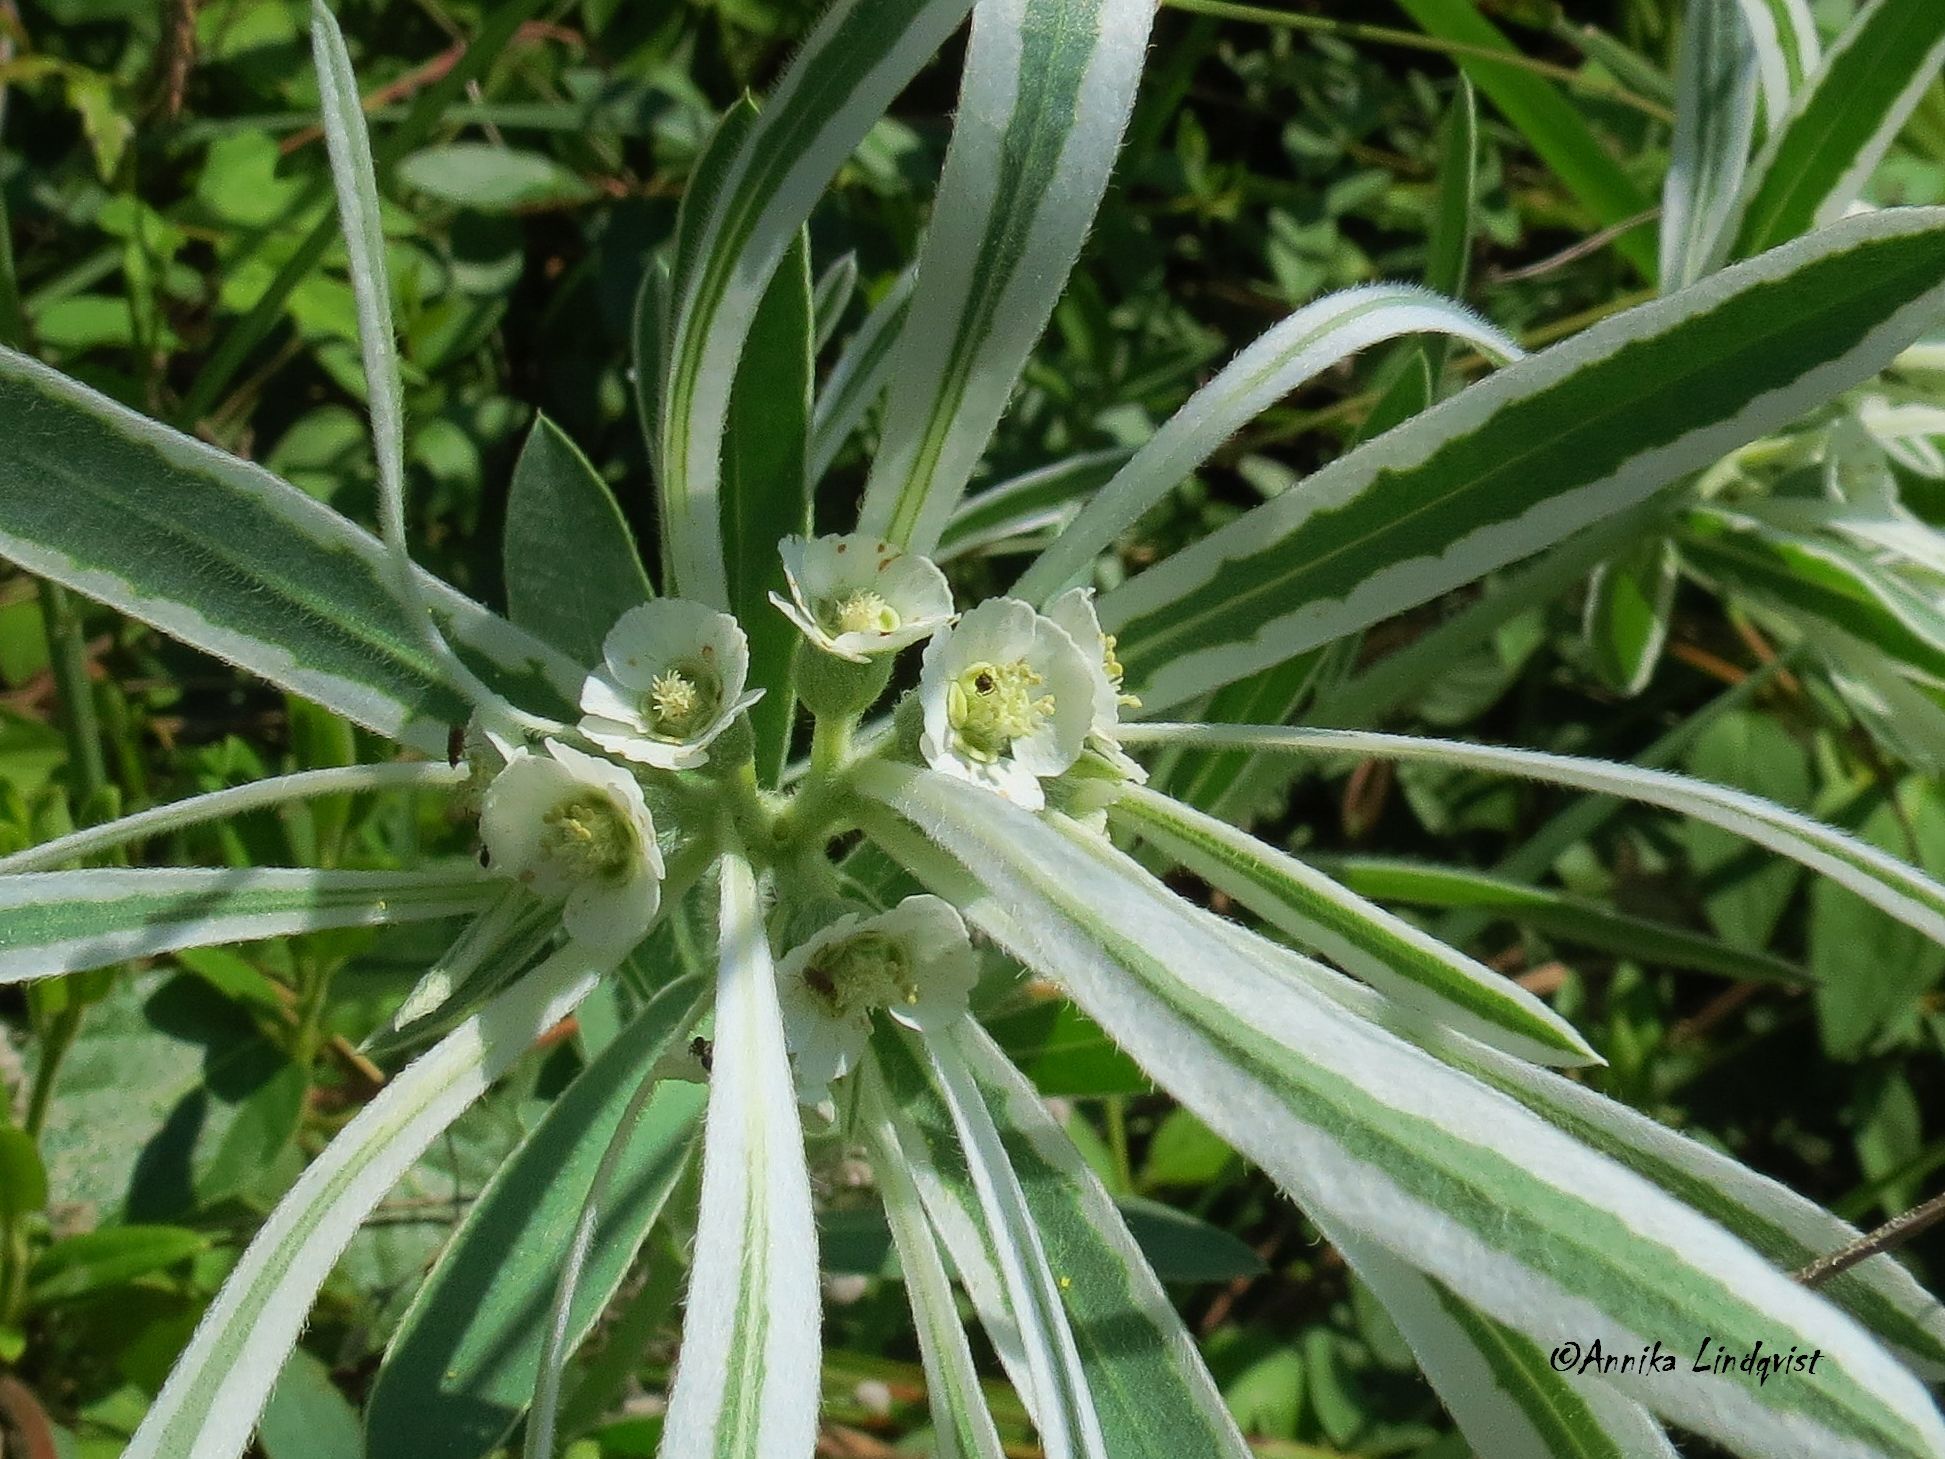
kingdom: Plantae
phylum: Tracheophyta
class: Magnoliopsida
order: Malpighiales
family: Euphorbiaceae
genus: Euphorbia
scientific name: Euphorbia bicolor
